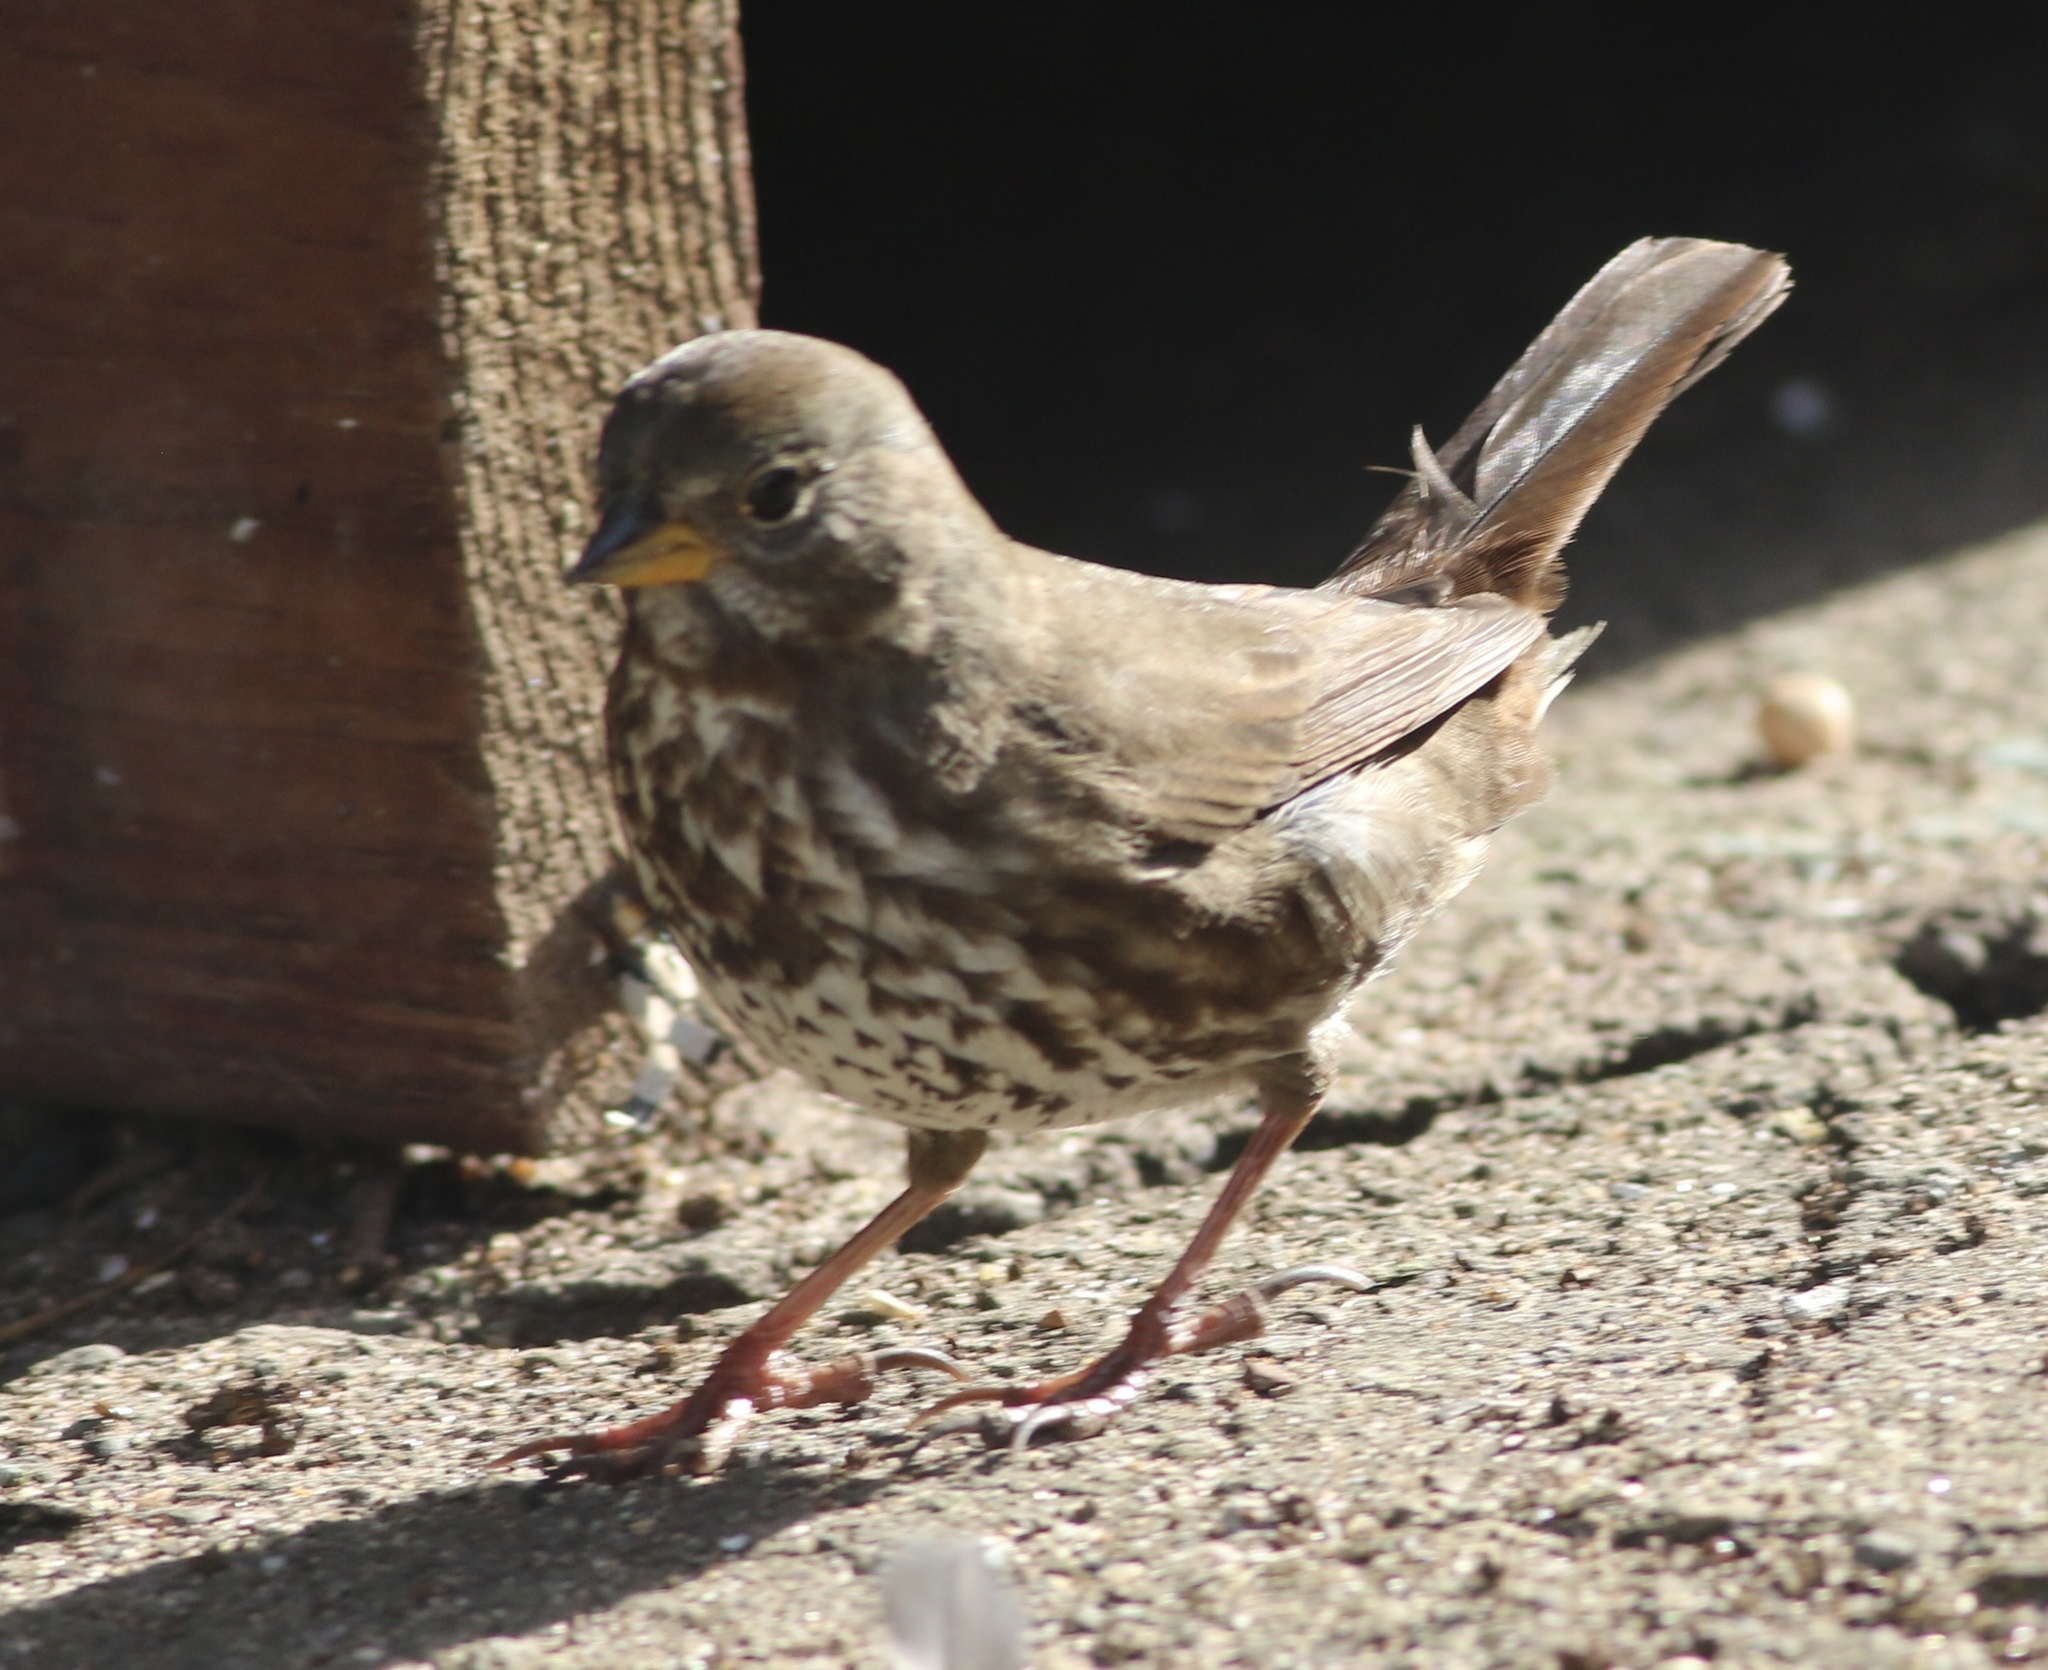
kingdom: Animalia
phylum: Chordata
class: Aves
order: Passeriformes
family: Passerellidae
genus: Passerella
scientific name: Passerella iliaca
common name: Fox sparrow
